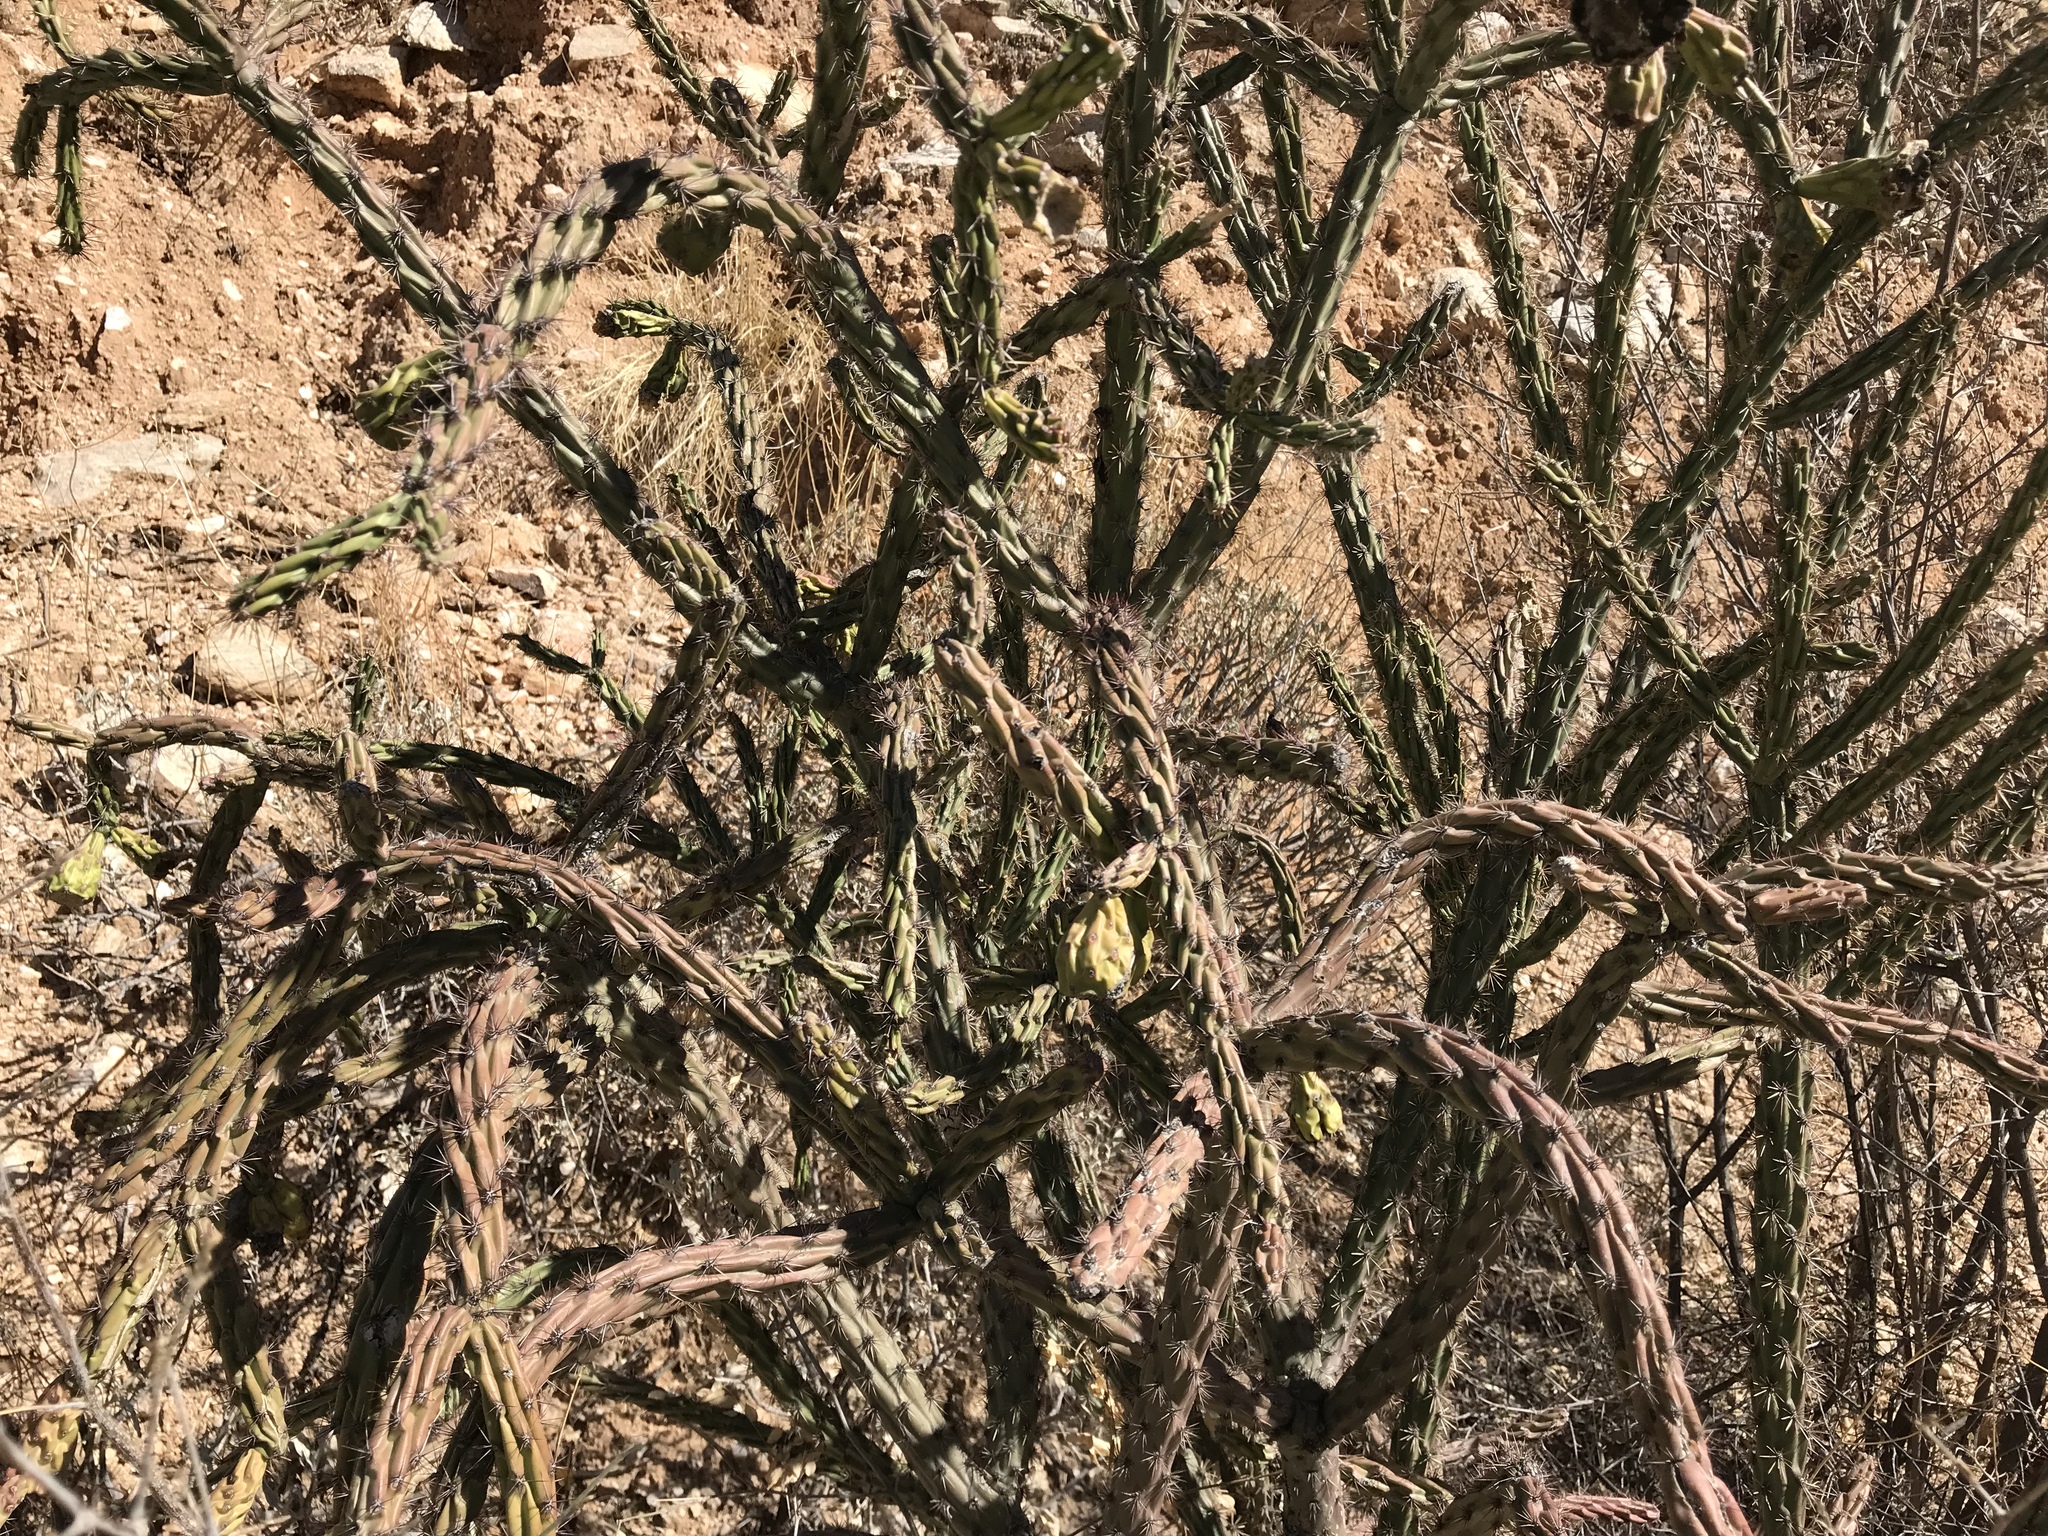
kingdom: Plantae
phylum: Tracheophyta
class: Magnoliopsida
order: Caryophyllales
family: Cactaceae
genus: Cylindropuntia
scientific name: Cylindropuntia thurberi
